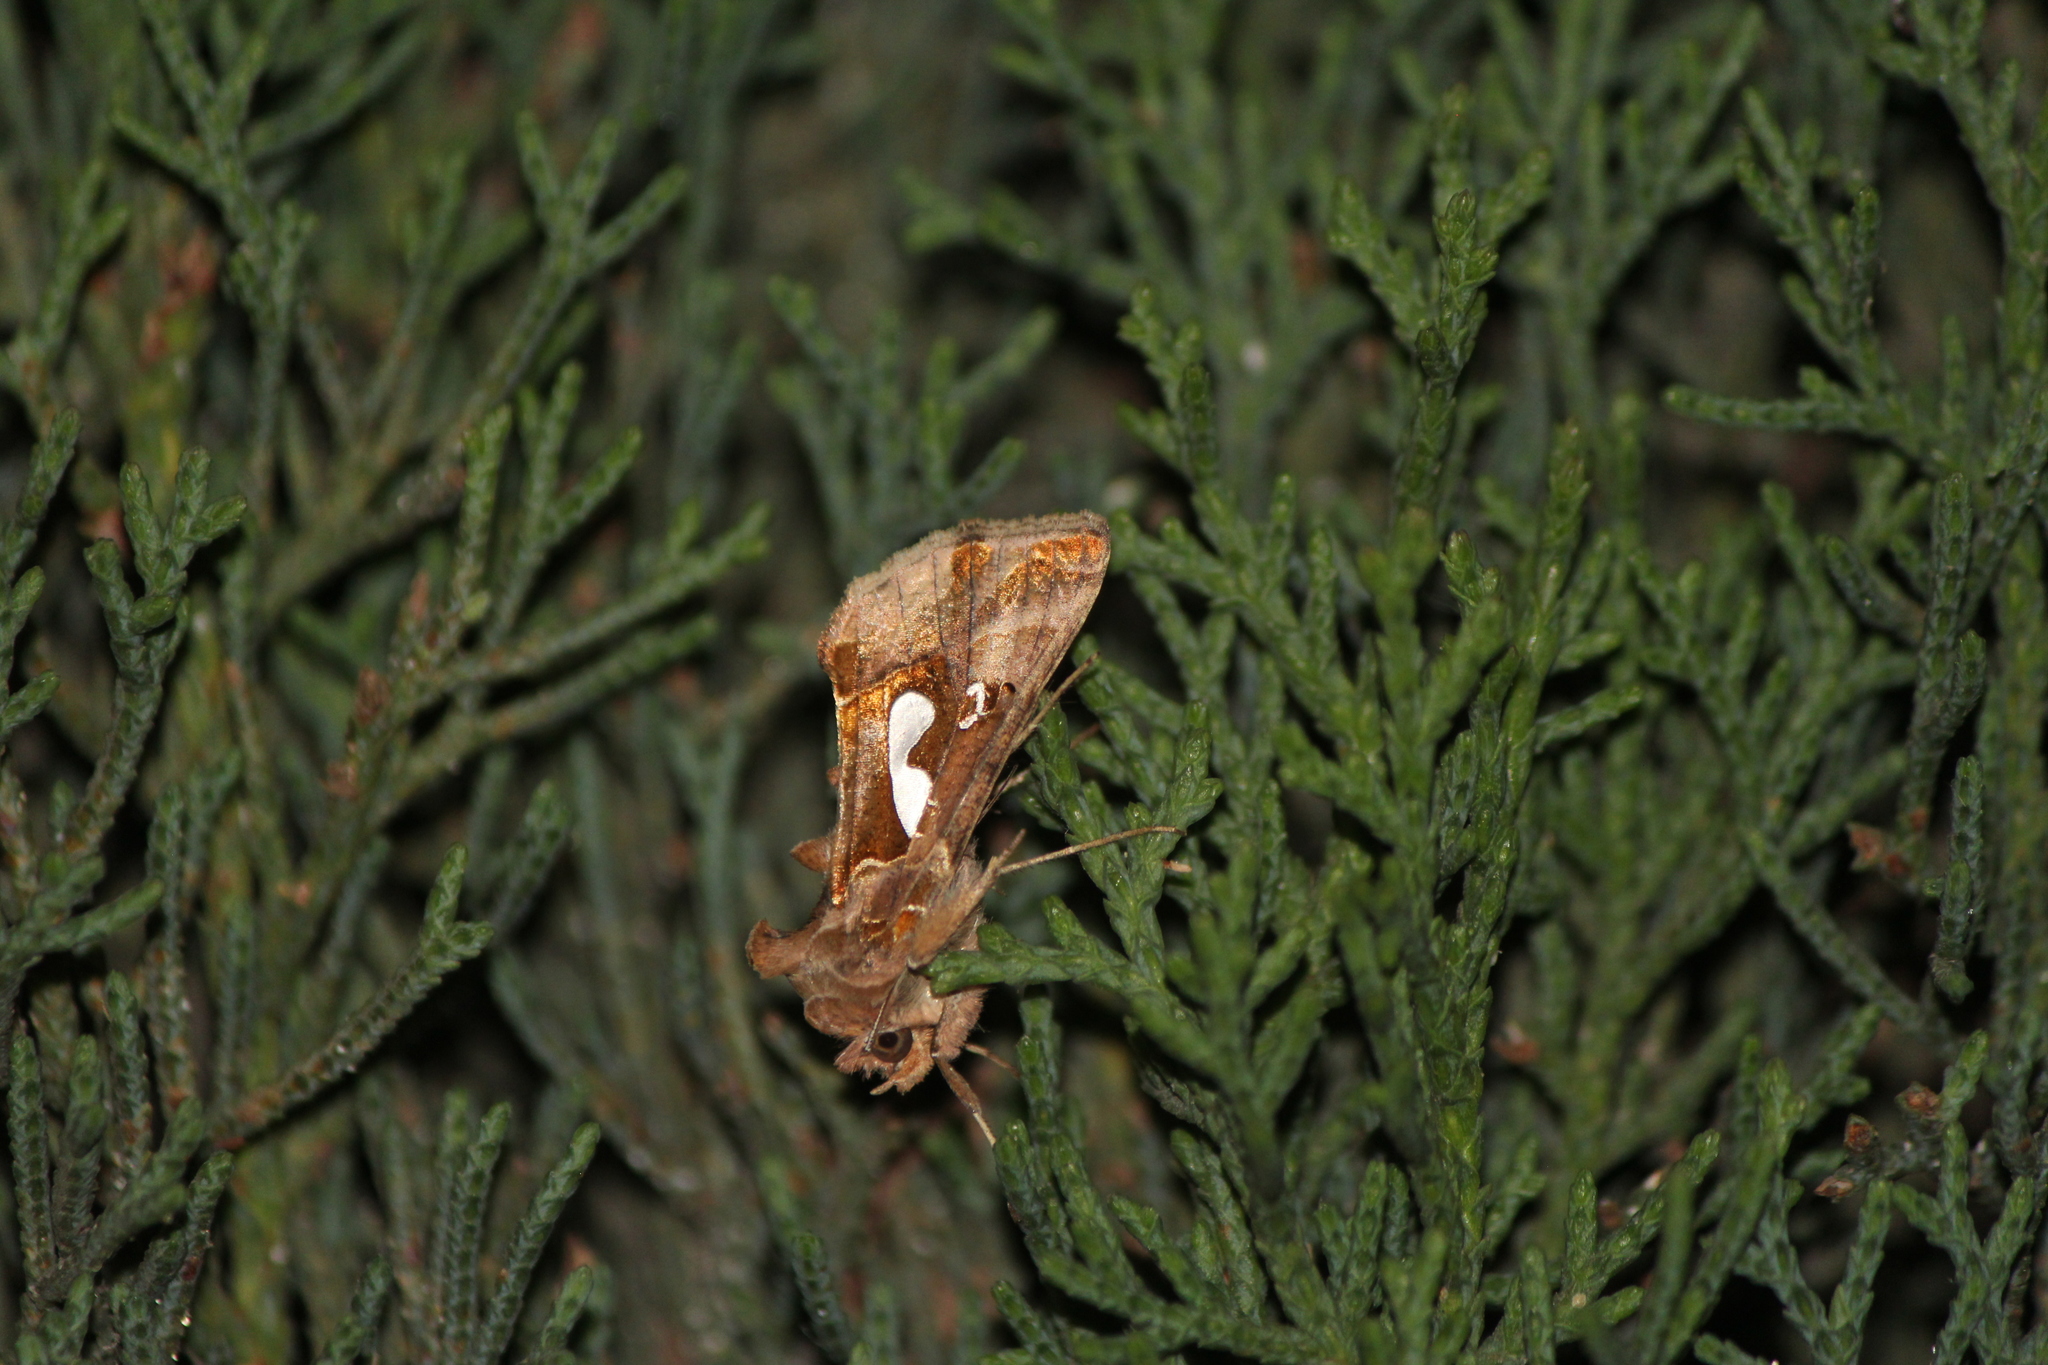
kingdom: Animalia
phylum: Arthropoda
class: Insecta
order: Lepidoptera
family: Noctuidae
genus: Megalographa
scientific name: Megalographa biloba
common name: Cutworm
